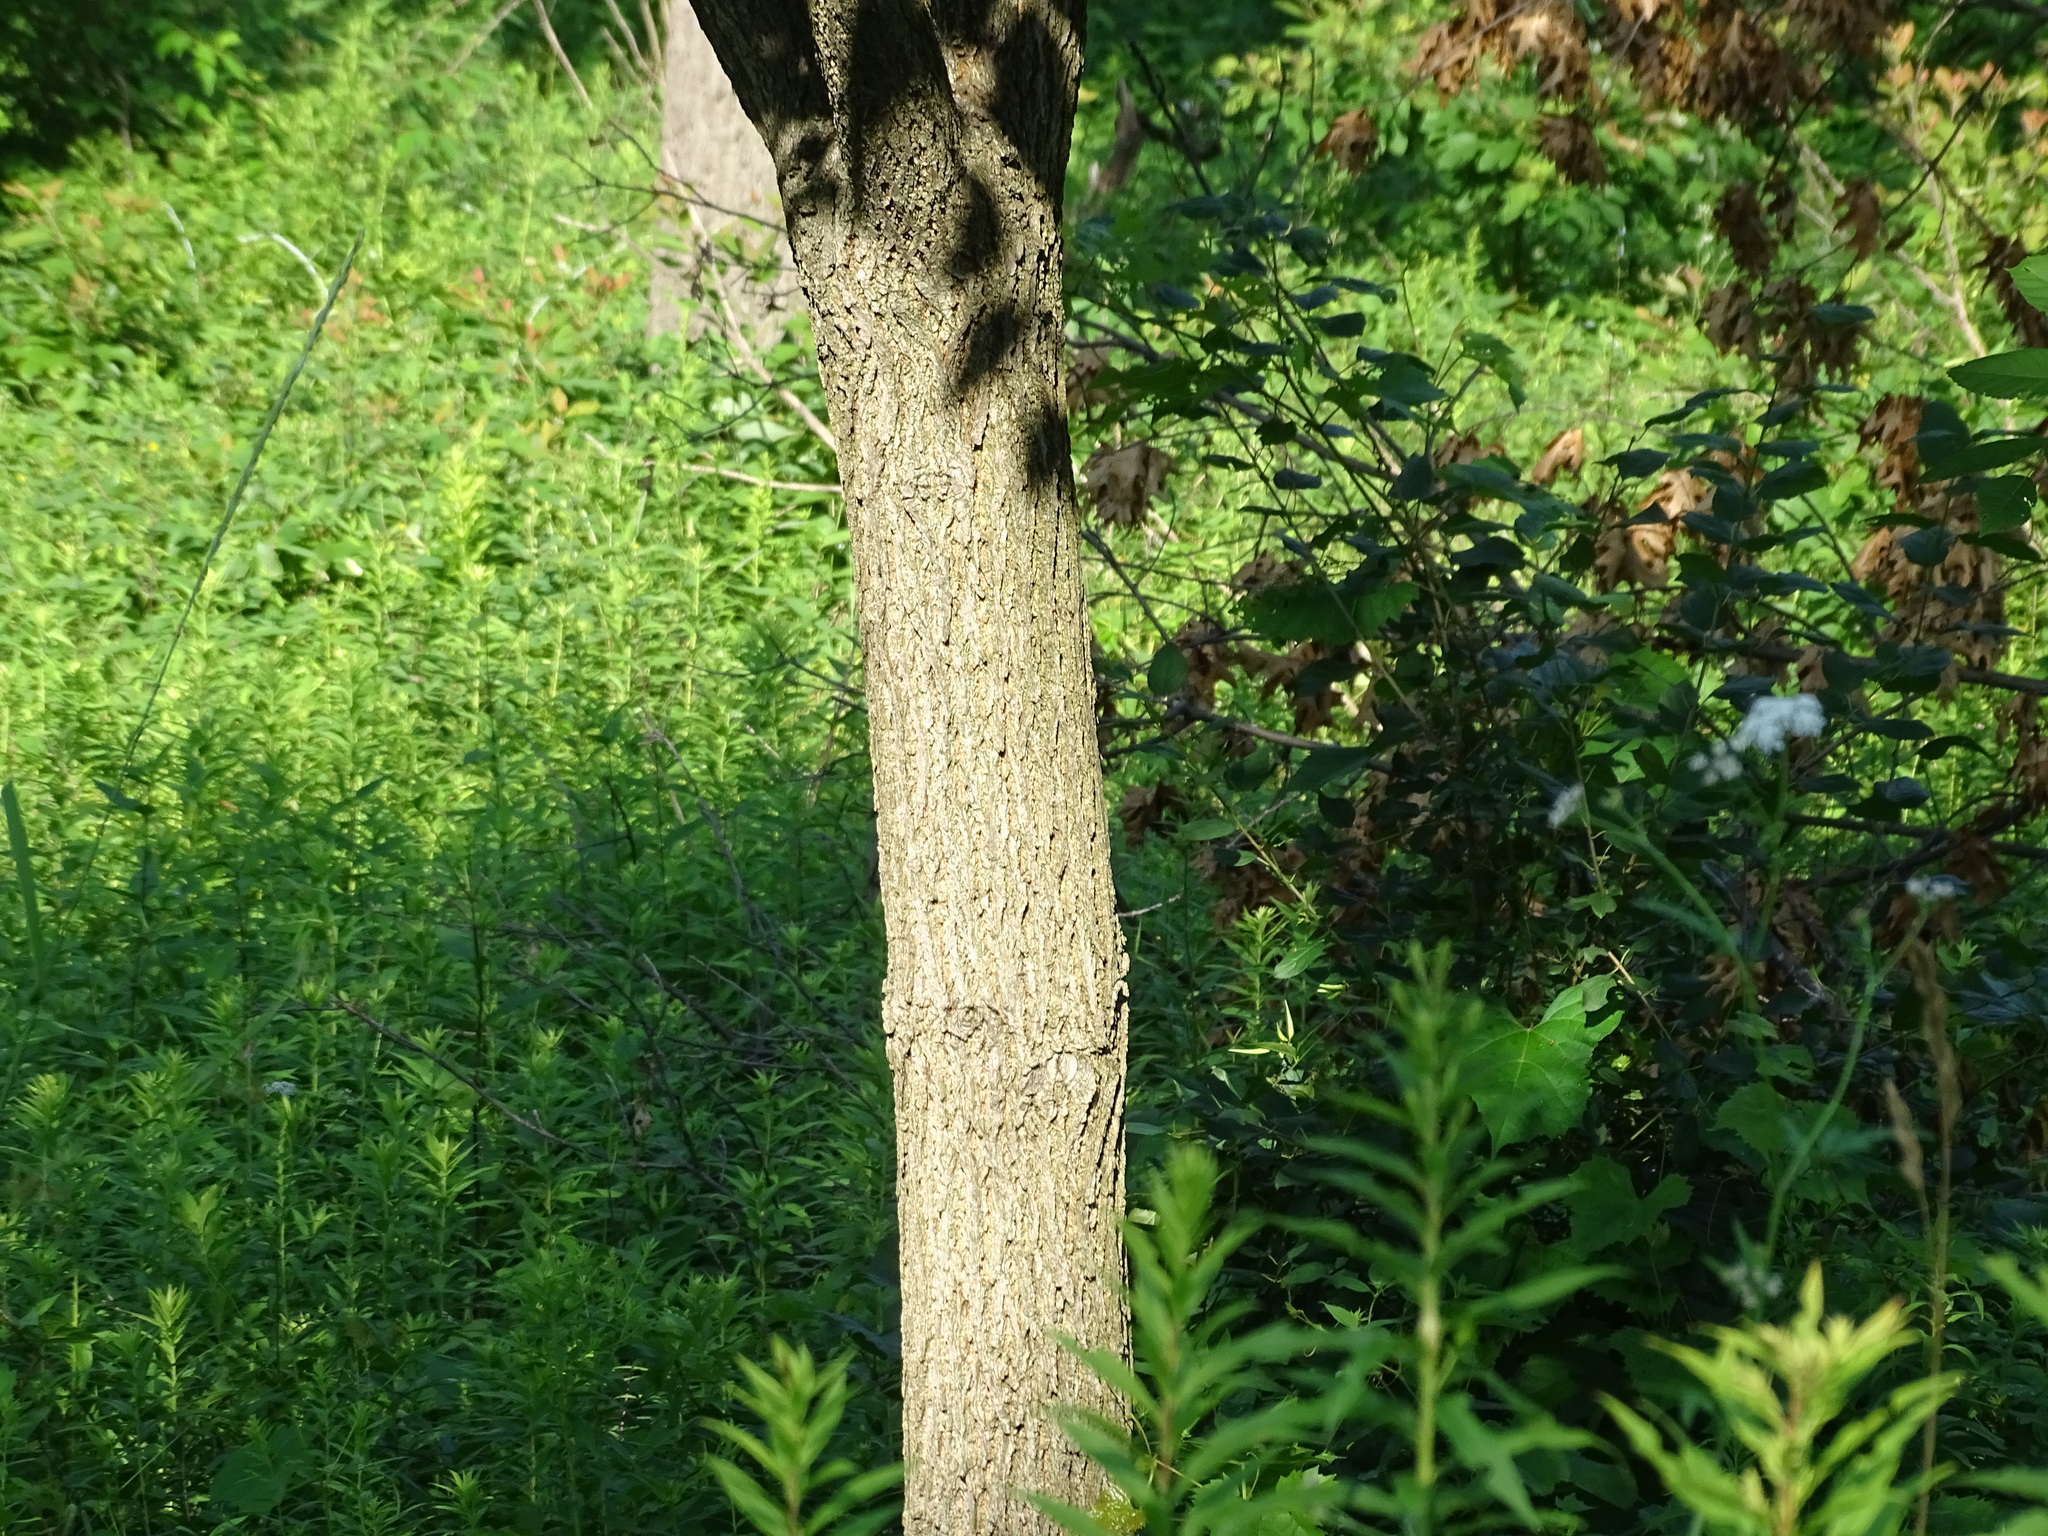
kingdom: Plantae
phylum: Tracheophyta
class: Magnoliopsida
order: Fagales
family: Juglandaceae
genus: Juglans
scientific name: Juglans nigra
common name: Black walnut
